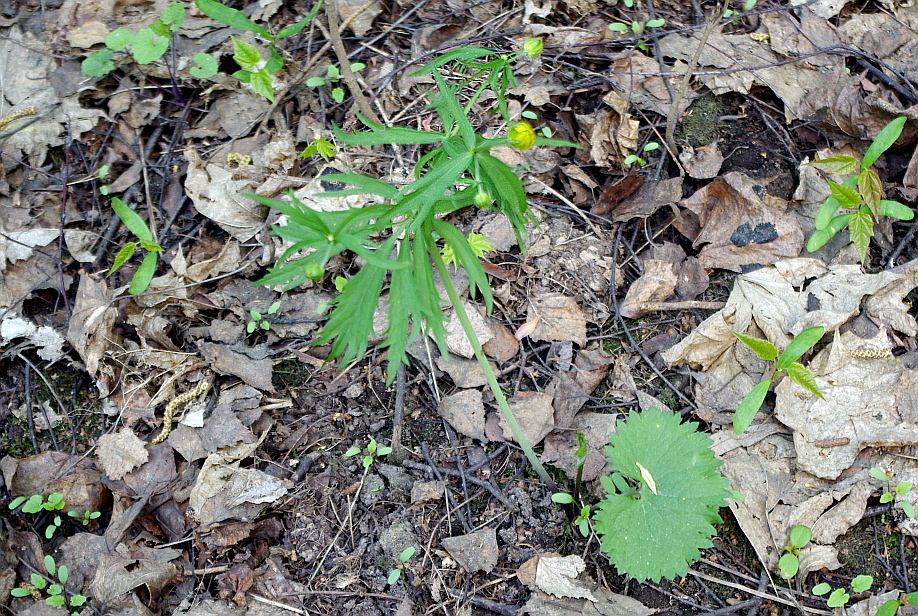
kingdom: Plantae
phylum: Tracheophyta
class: Magnoliopsida
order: Ranunculales
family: Ranunculaceae
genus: Ranunculus
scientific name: Ranunculus cassubicus
